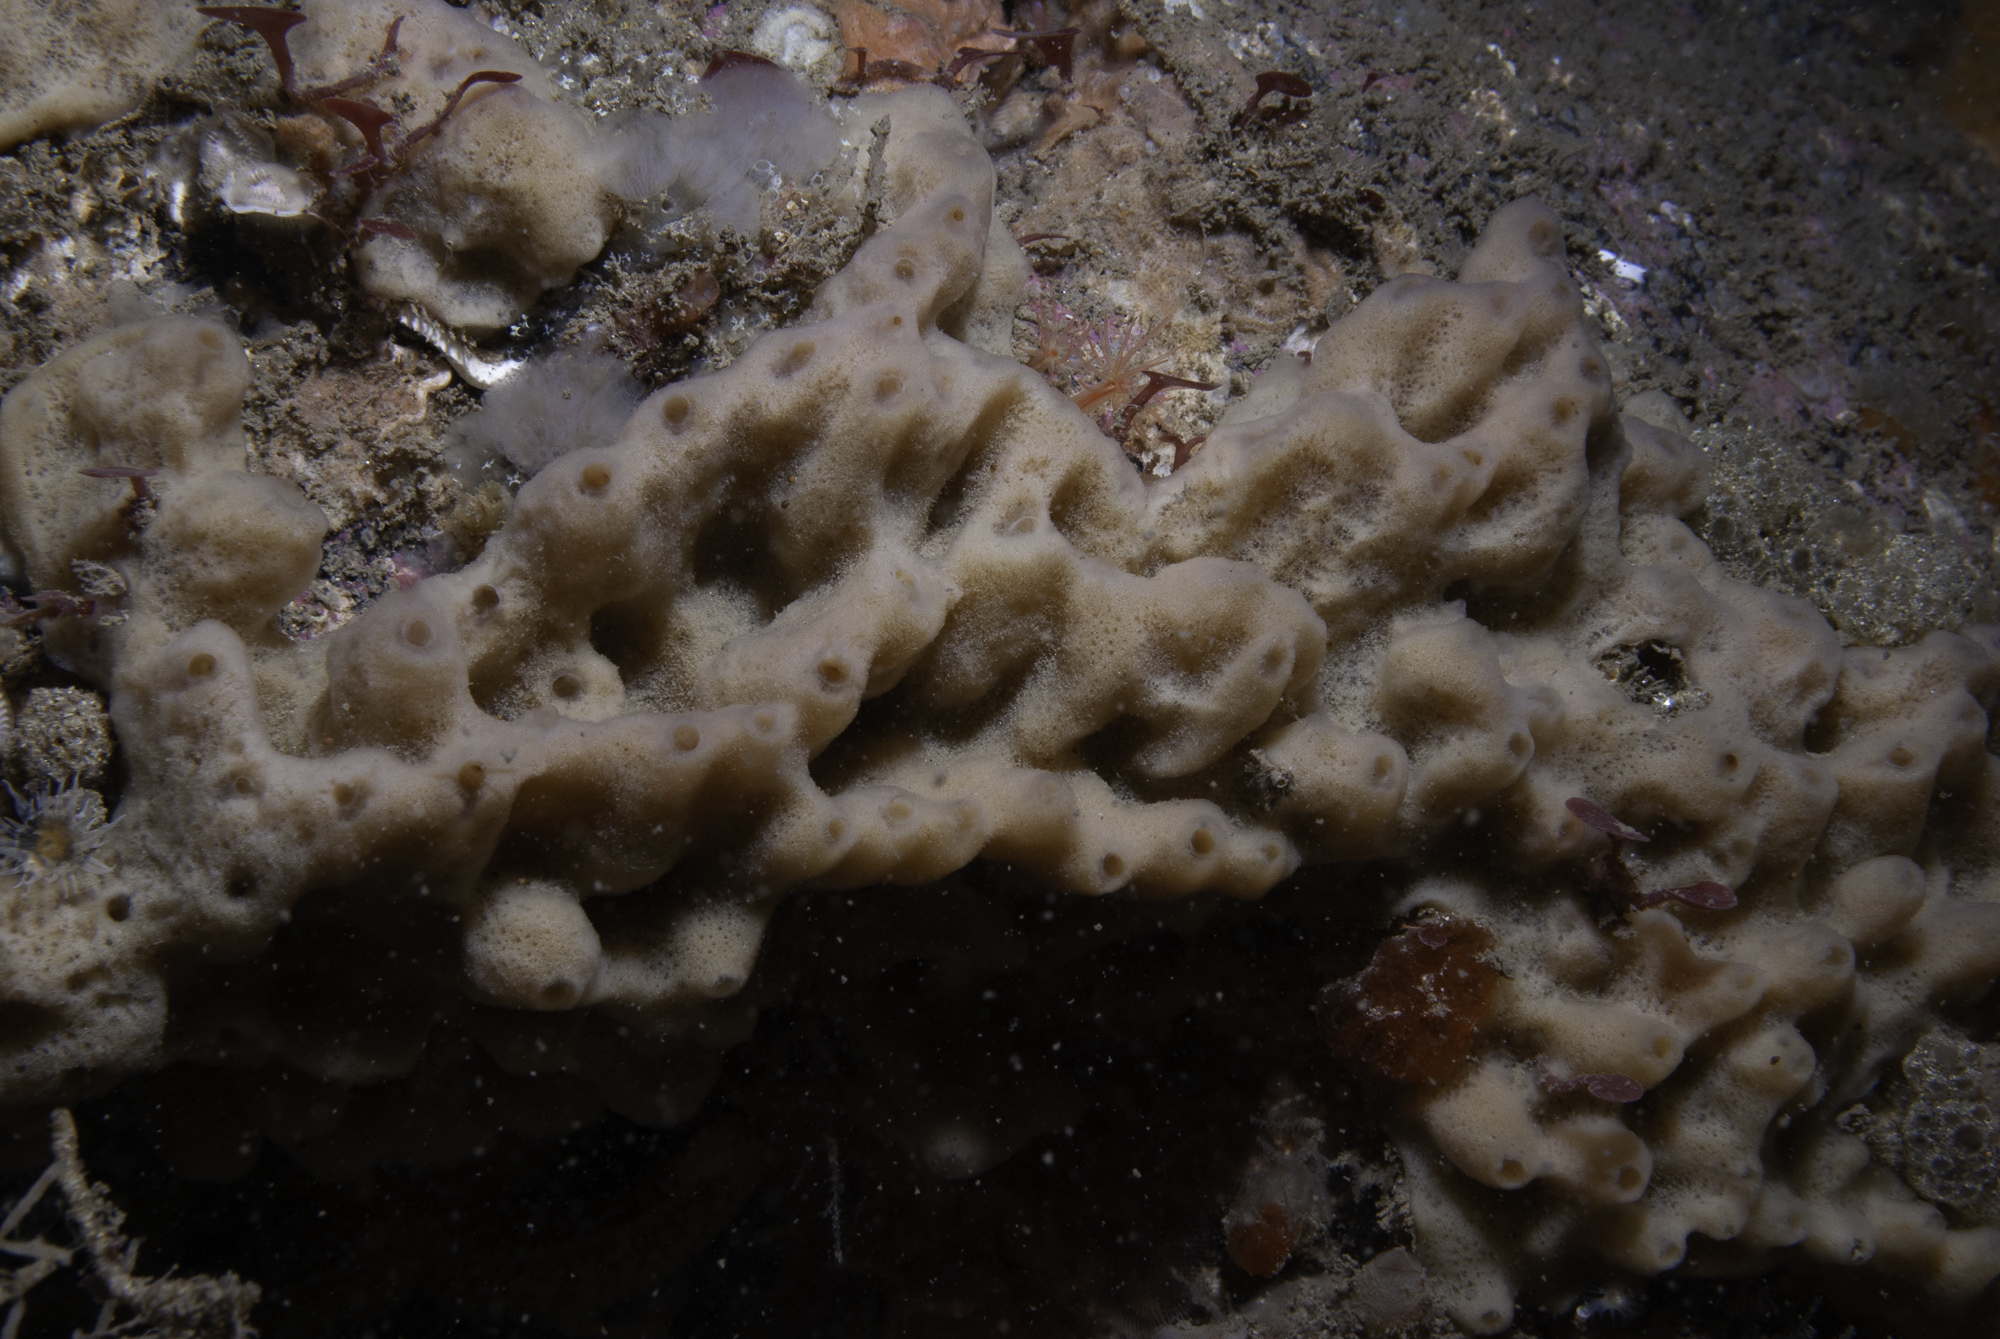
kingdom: Animalia
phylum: Porifera
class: Demospongiae
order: Haplosclerida
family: Chalinidae
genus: Haliclona
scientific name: Haliclona viscosa
